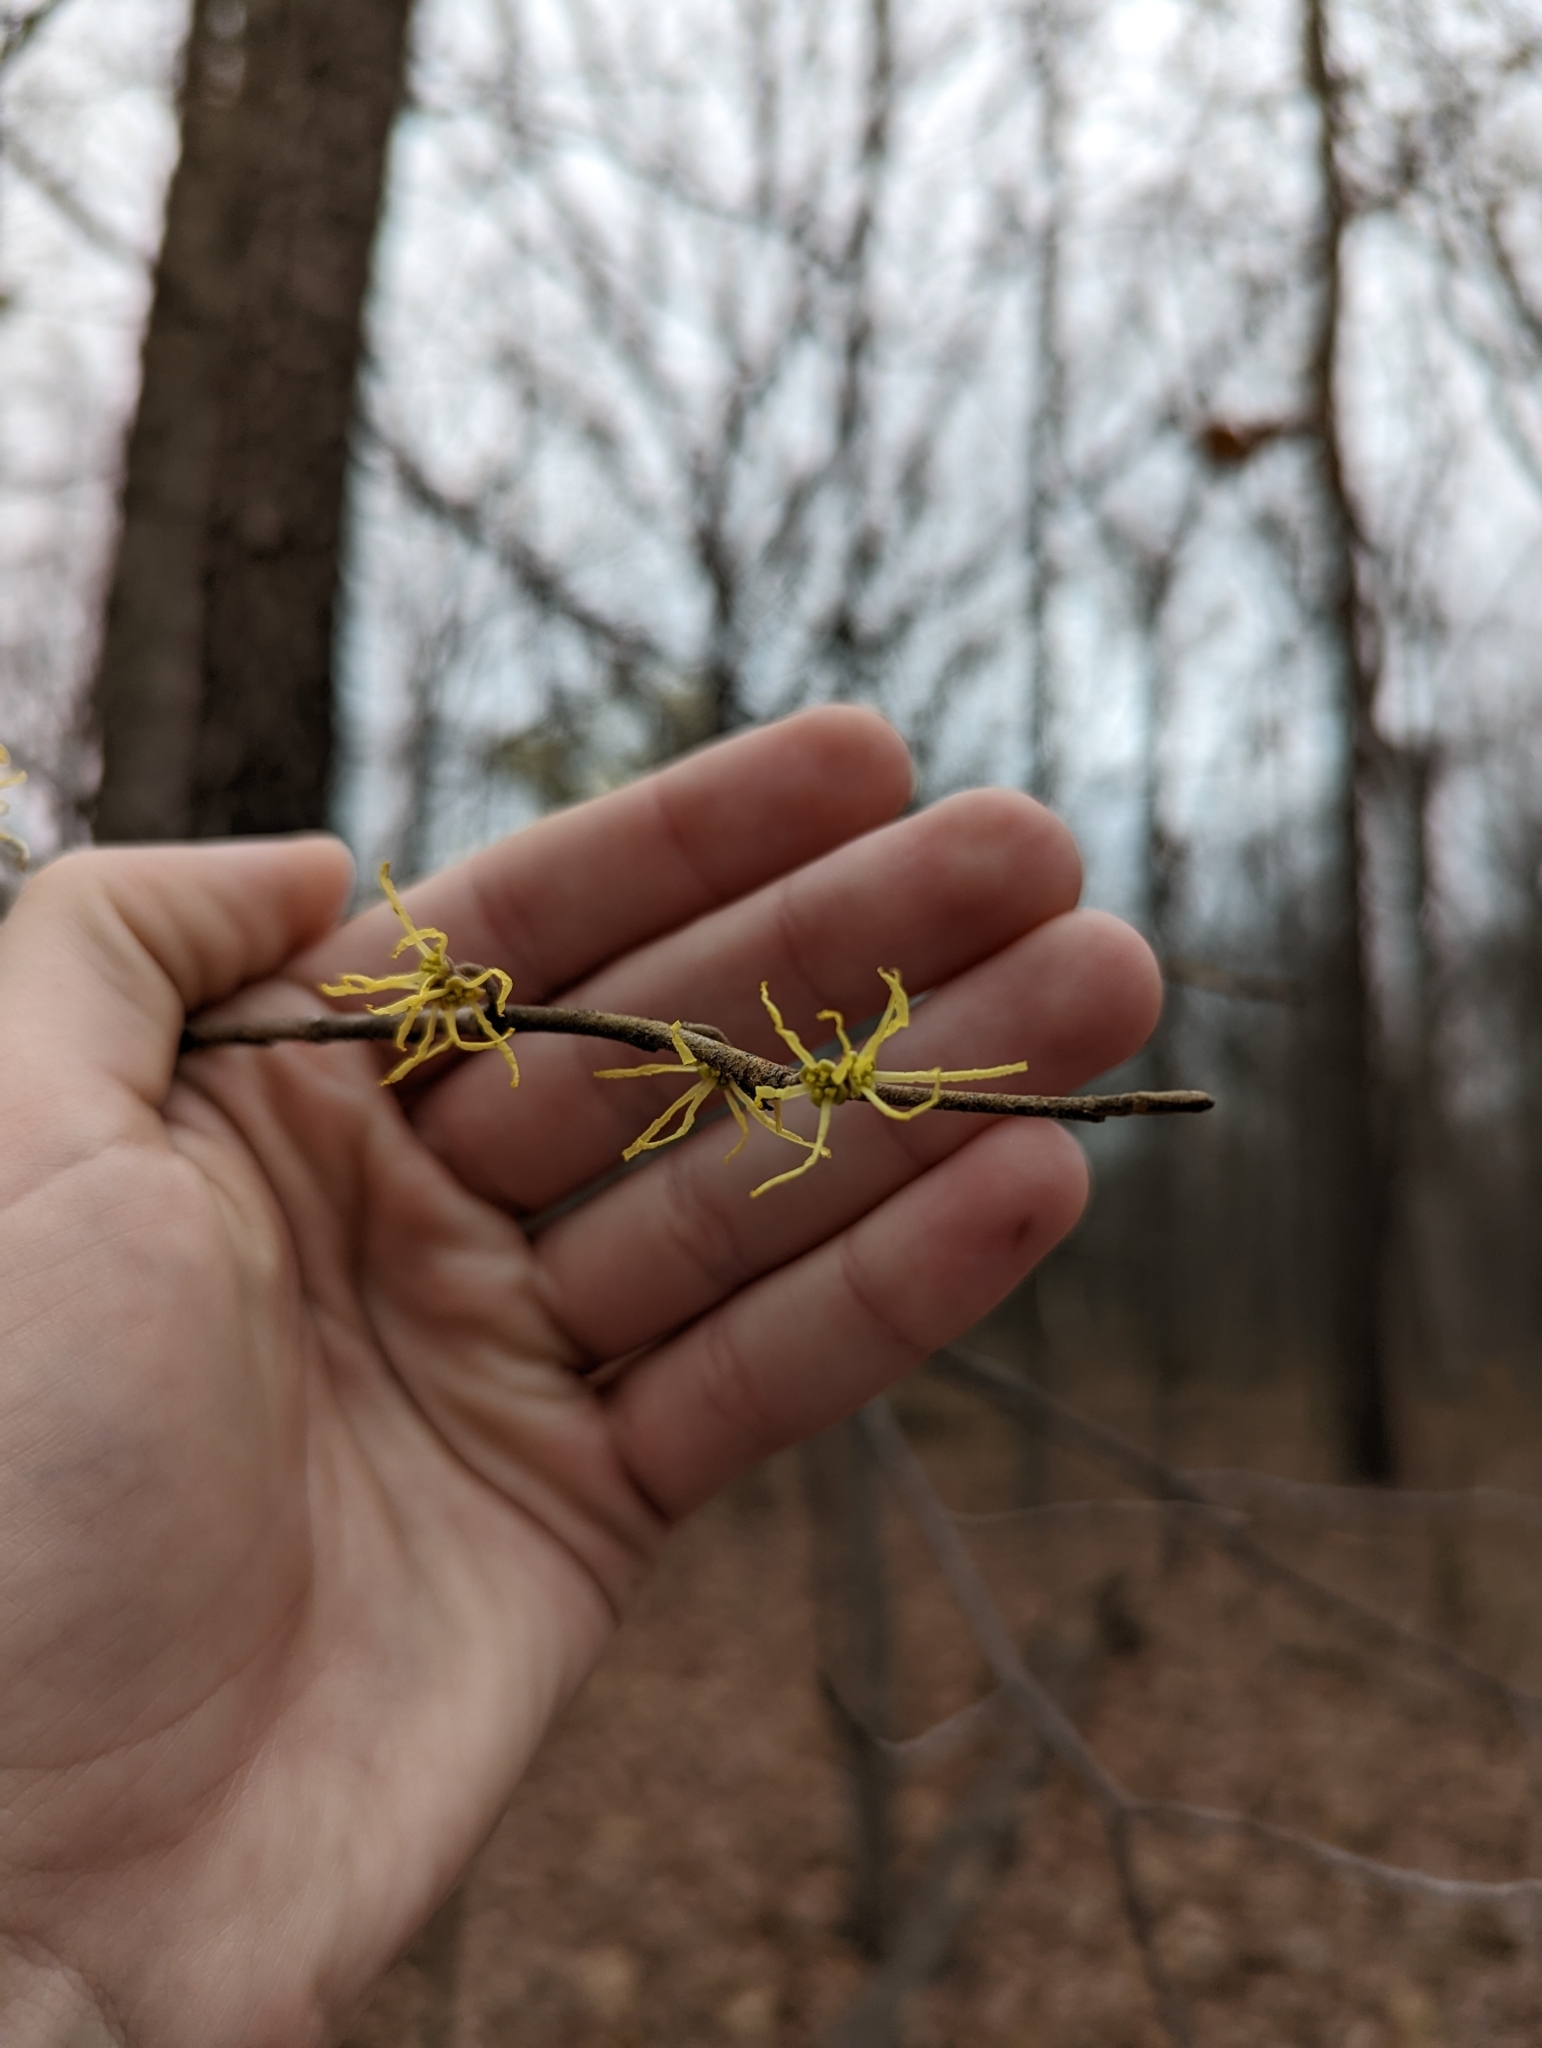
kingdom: Plantae
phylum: Tracheophyta
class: Magnoliopsida
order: Saxifragales
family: Hamamelidaceae
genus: Hamamelis
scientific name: Hamamelis virginiana
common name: Witch-hazel
